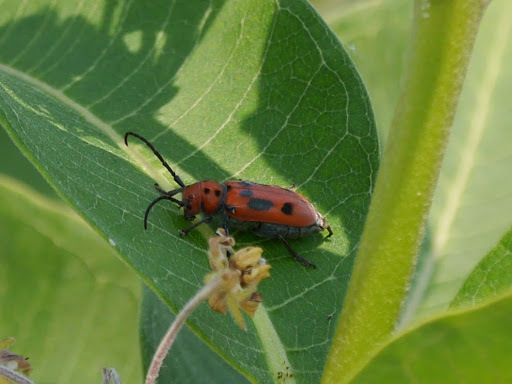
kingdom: Animalia
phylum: Arthropoda
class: Insecta
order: Coleoptera
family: Cerambycidae
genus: Tetraopes
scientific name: Tetraopes tetrophthalmus
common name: Red milkweed beetle
